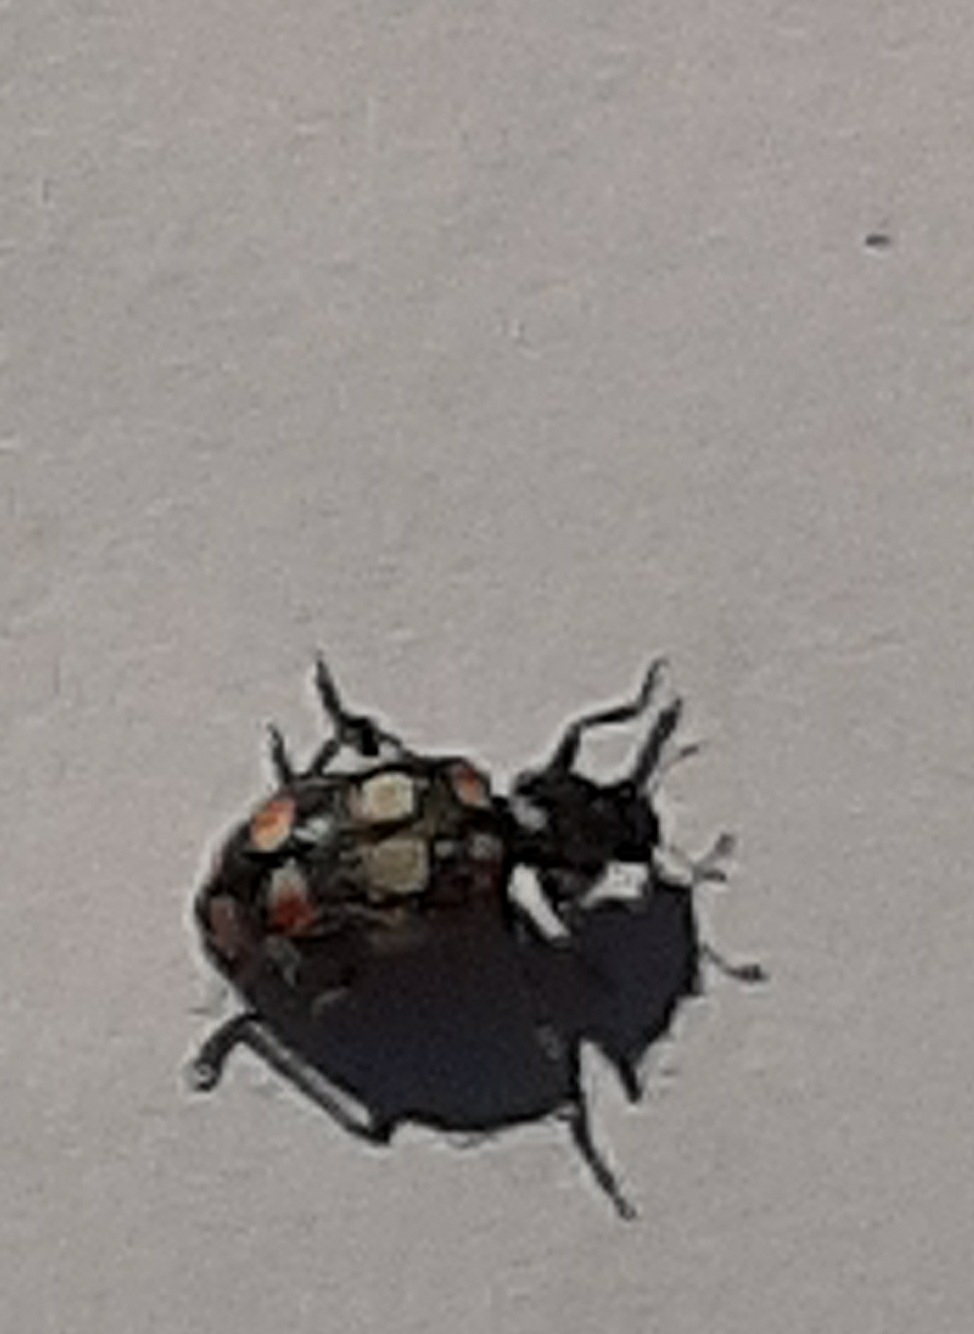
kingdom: Animalia
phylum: Arthropoda
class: Insecta
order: Coleoptera
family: Coccinellidae
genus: Eriopis
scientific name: Eriopis connexa
